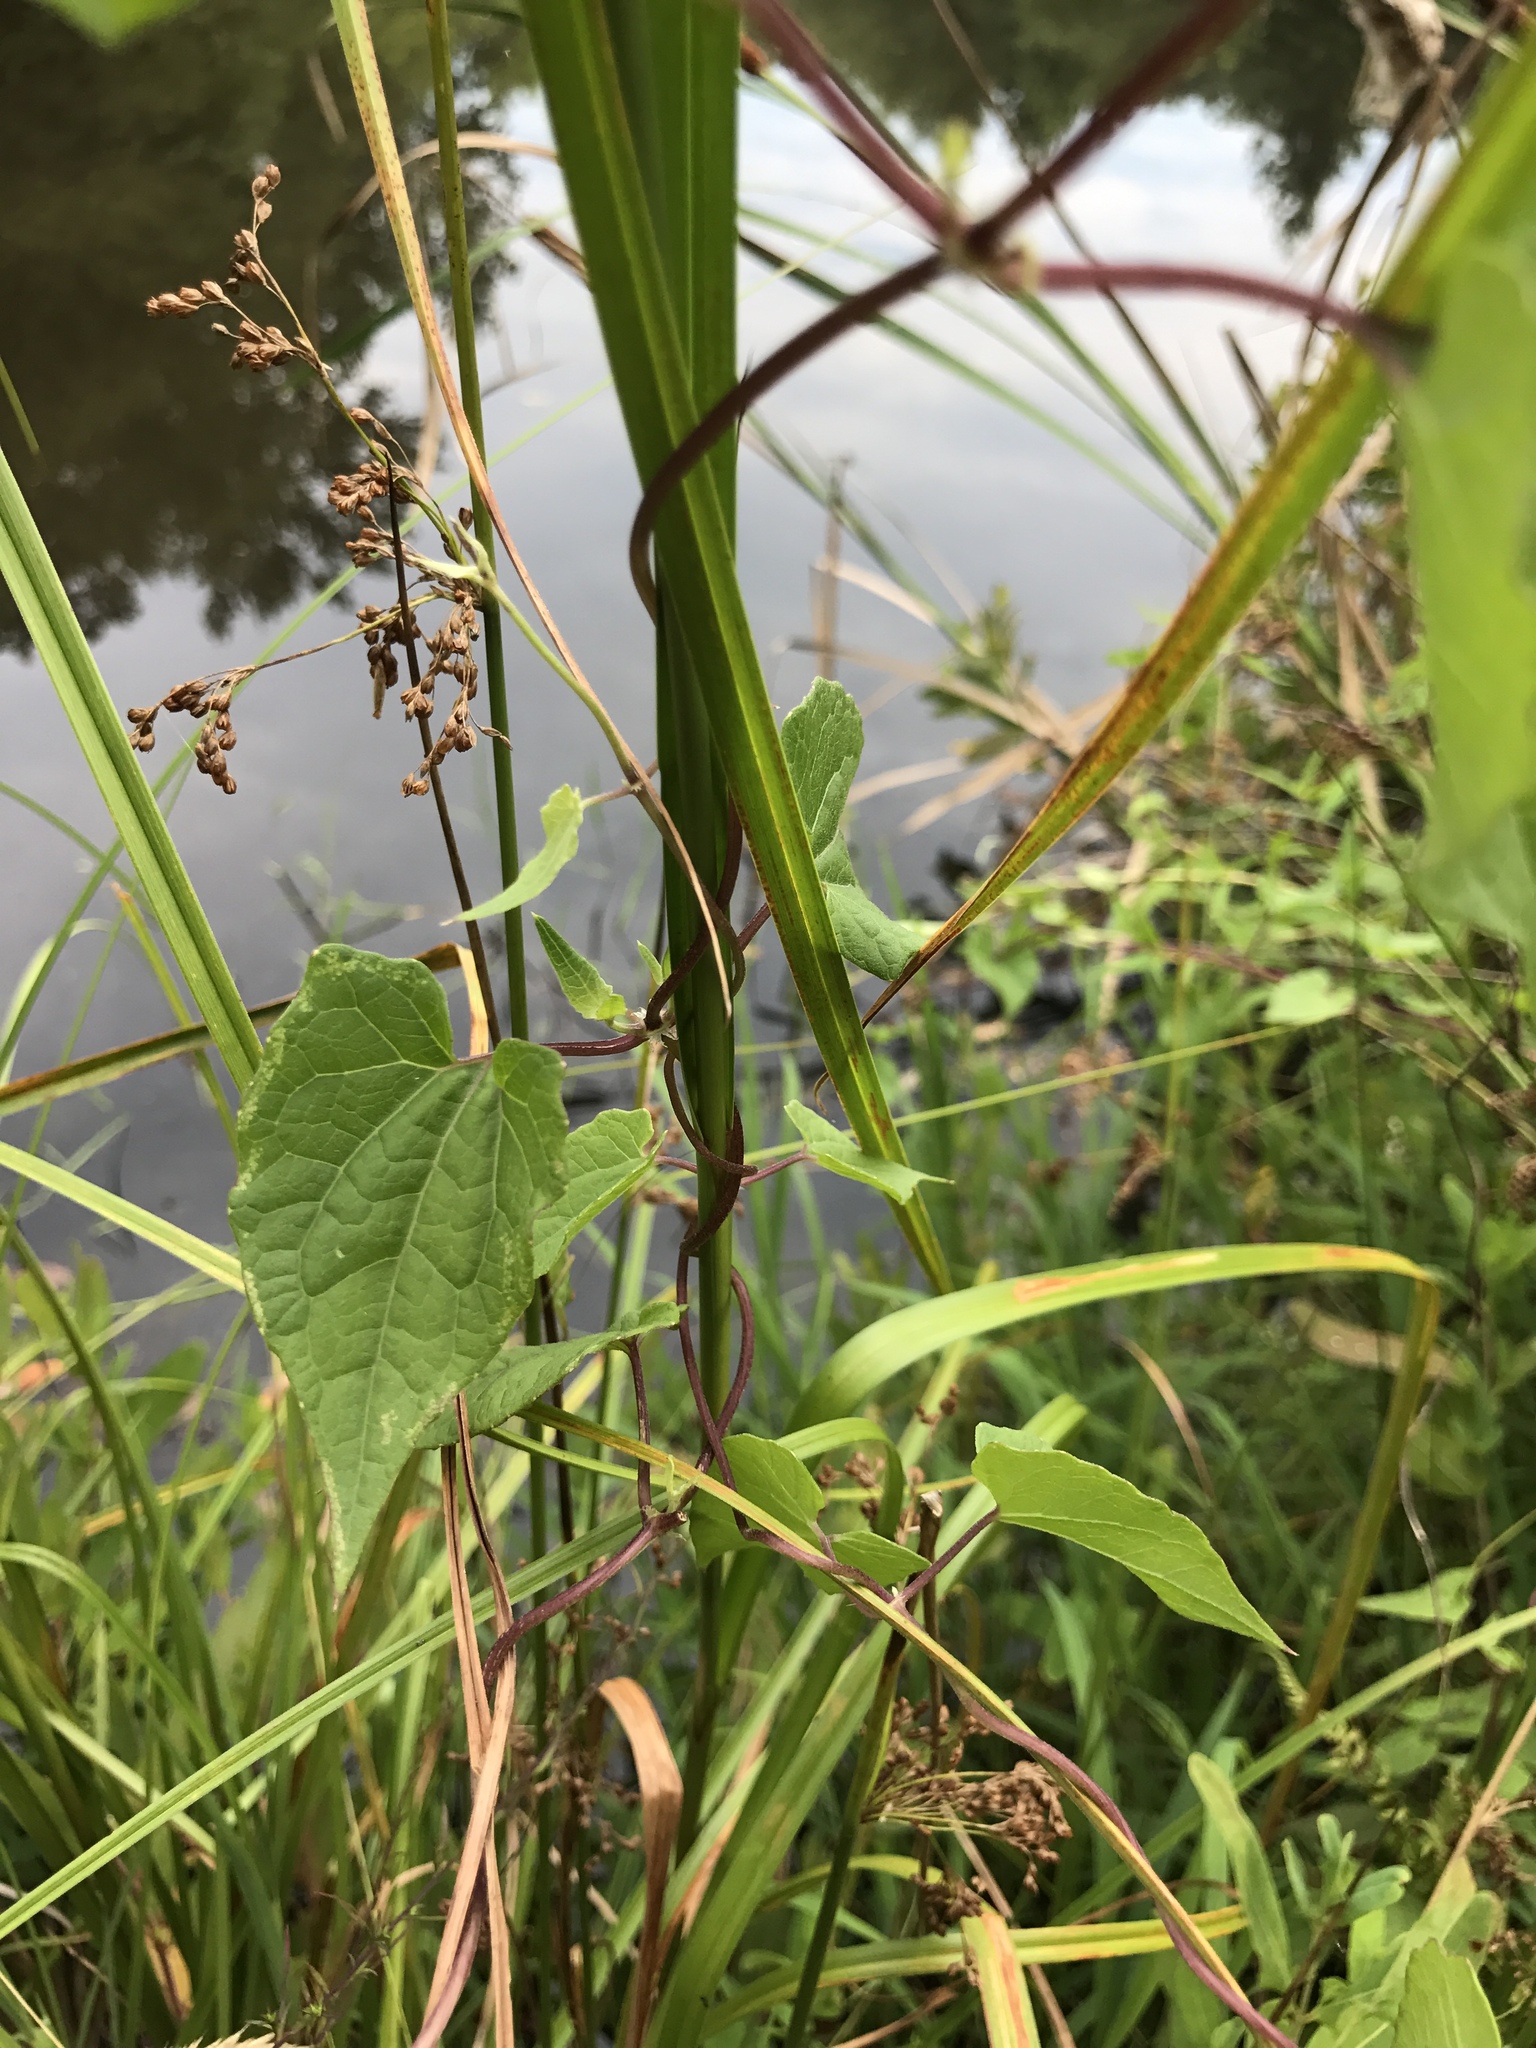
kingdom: Plantae
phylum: Tracheophyta
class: Magnoliopsida
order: Asterales
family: Asteraceae
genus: Mikania
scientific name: Mikania scandens
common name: Climbing hempvine
